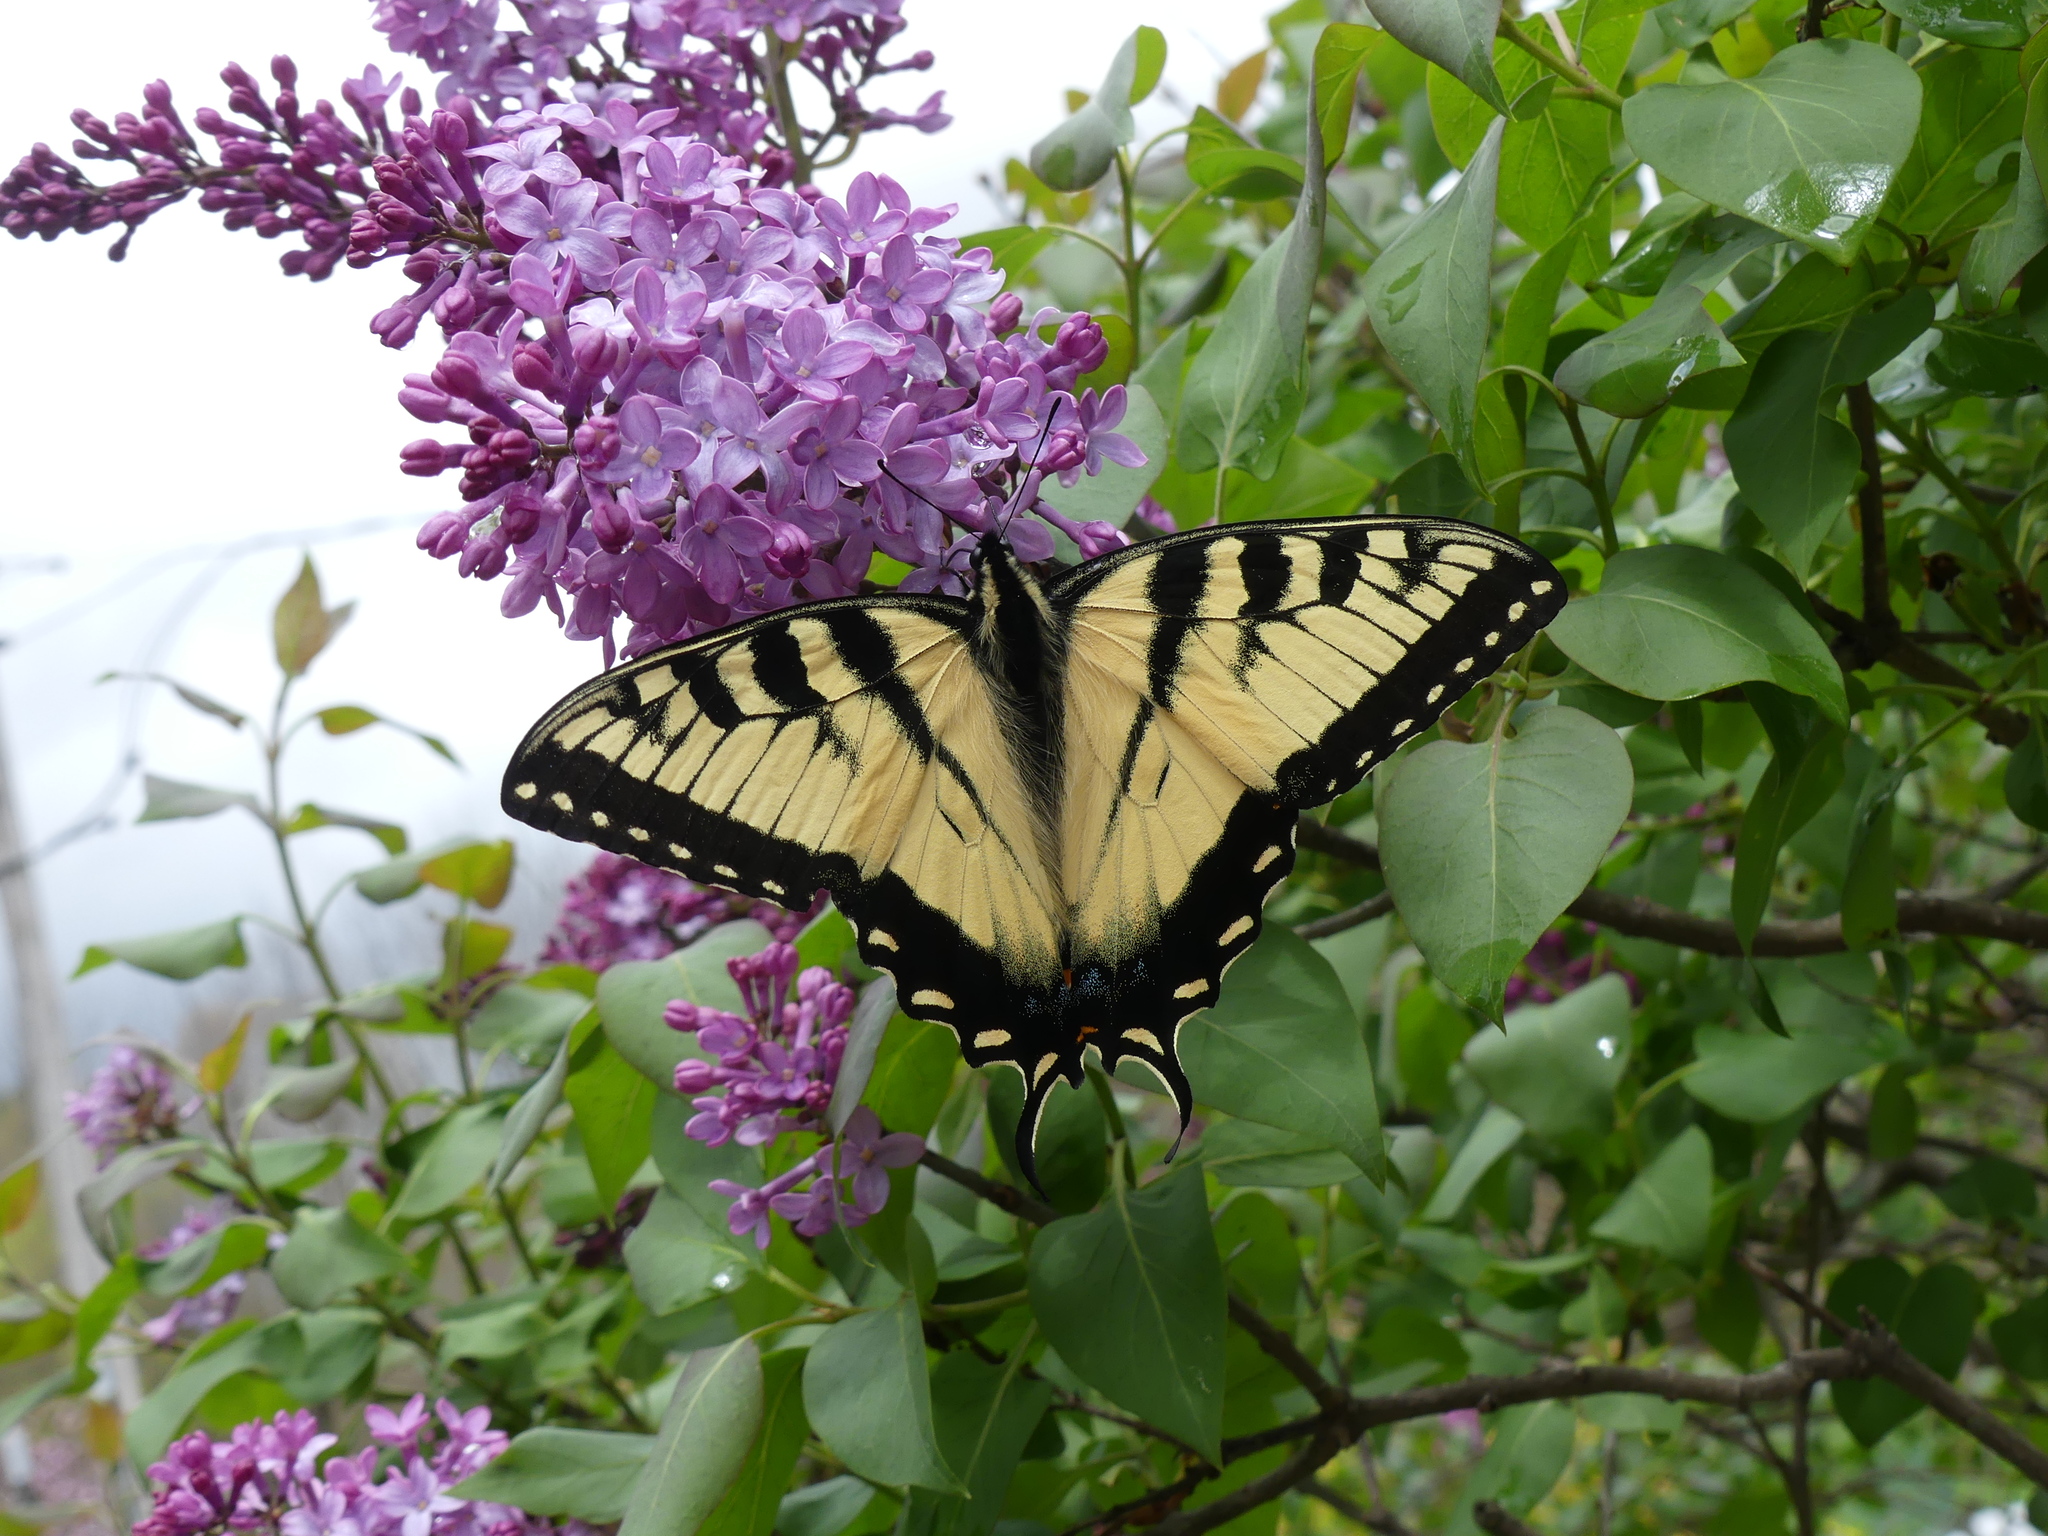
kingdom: Animalia
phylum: Arthropoda
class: Insecta
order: Lepidoptera
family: Papilionidae
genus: Papilio
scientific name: Papilio glaucus
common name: Tiger swallowtail
